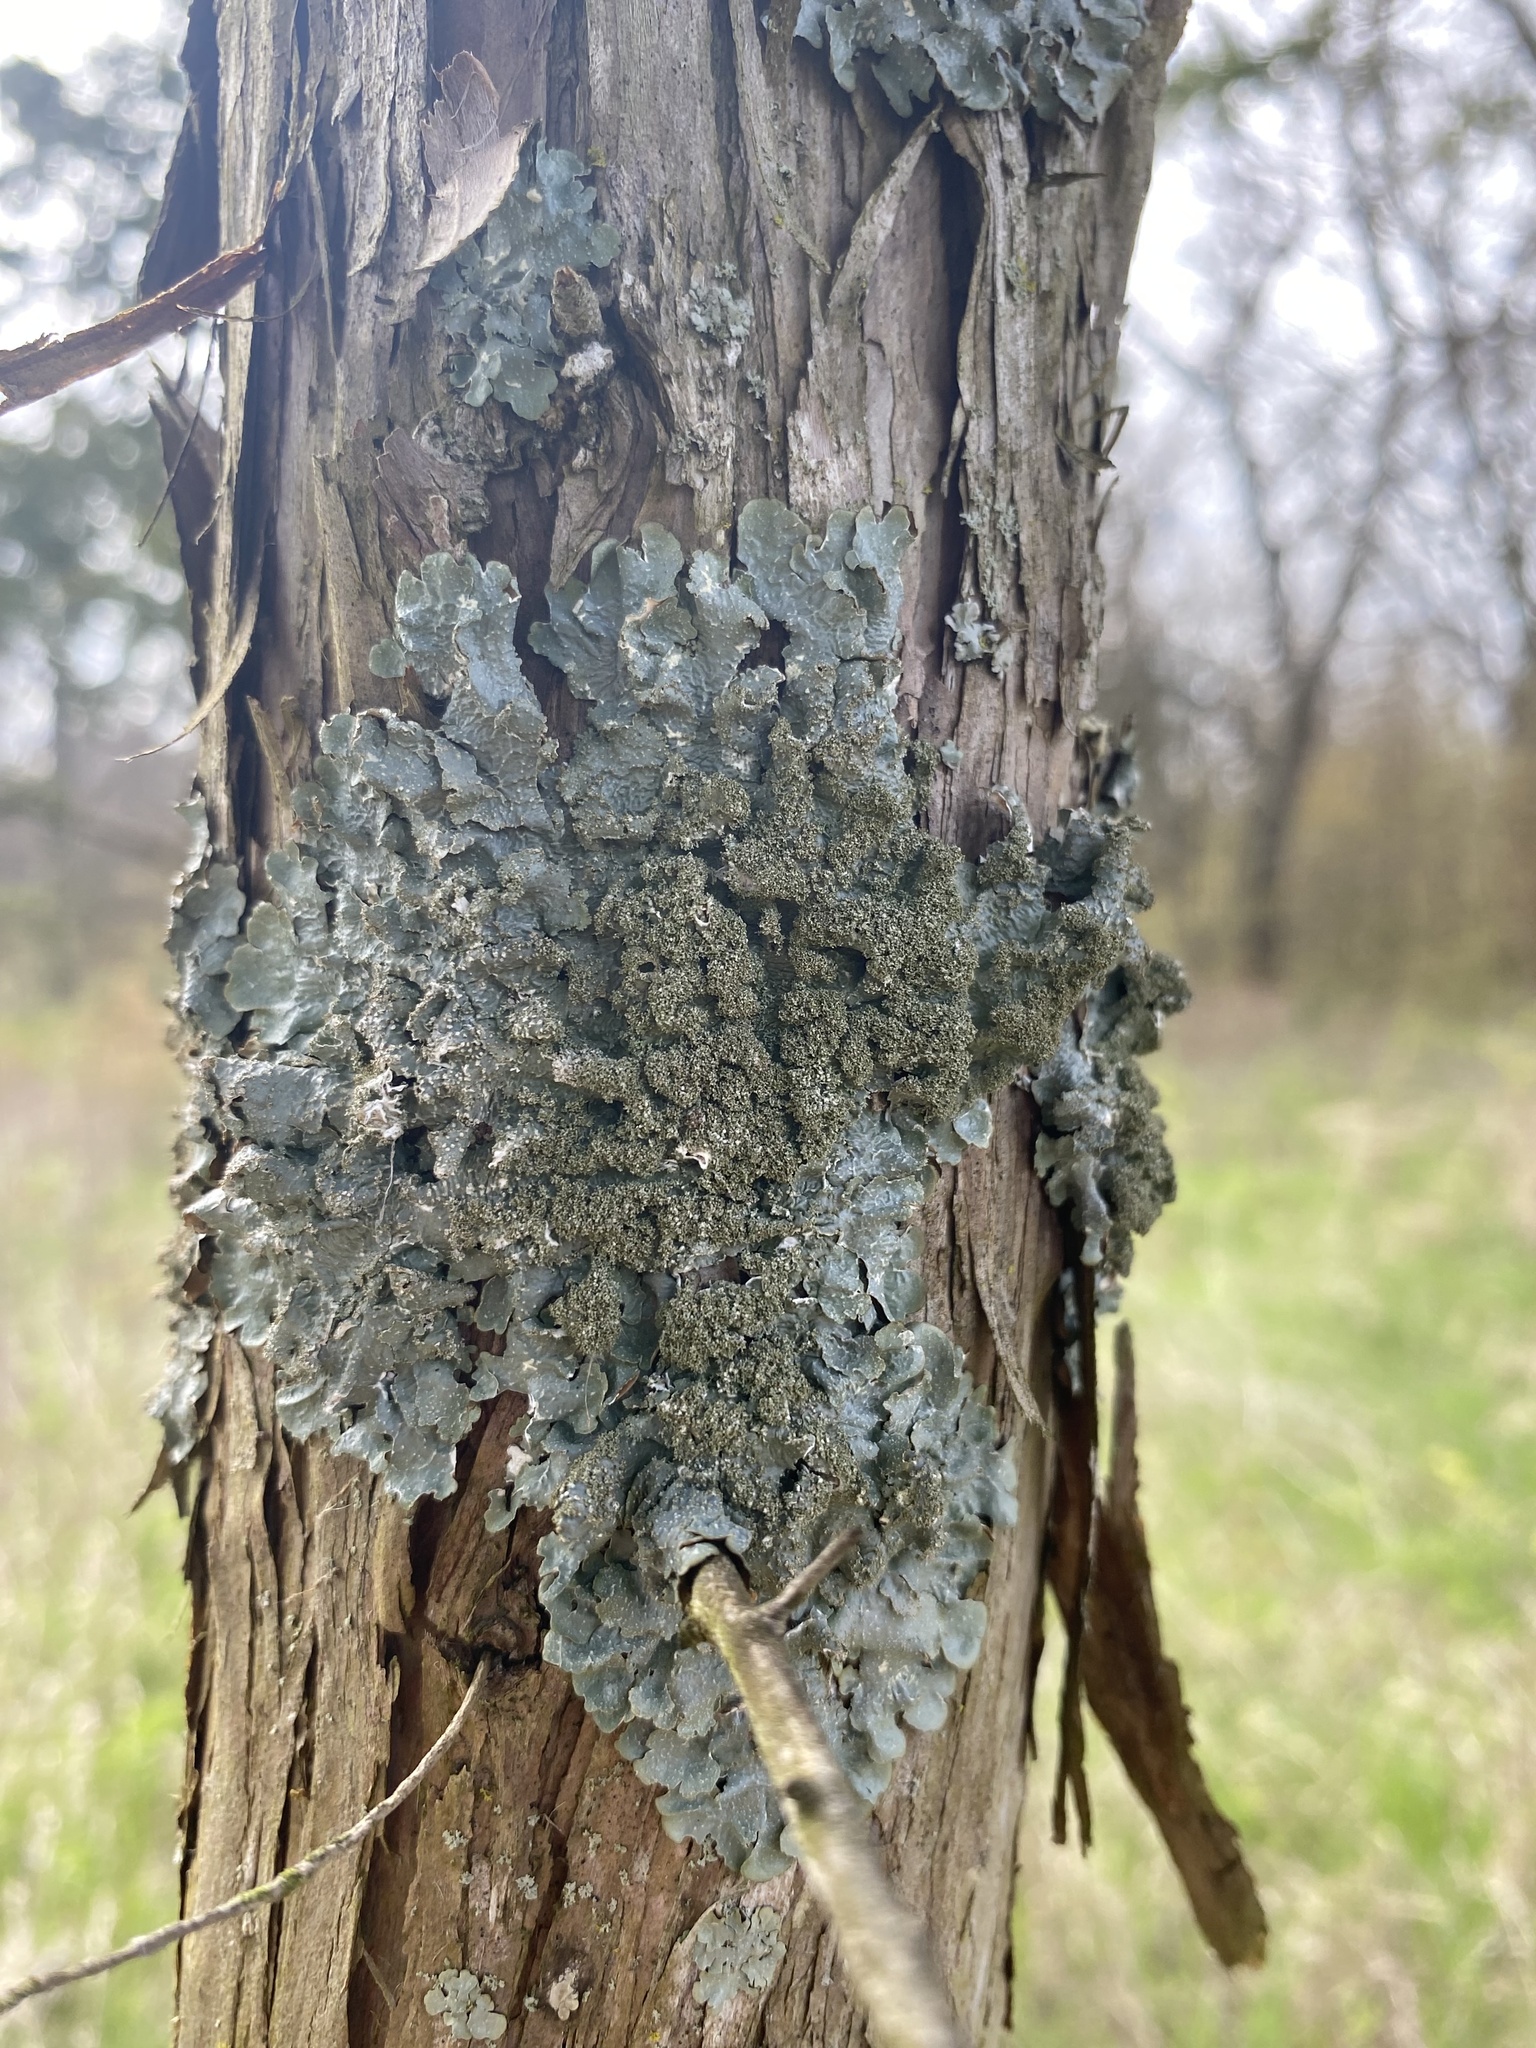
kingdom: Fungi
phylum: Ascomycota
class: Lecanoromycetes
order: Lecanorales
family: Parmeliaceae
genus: Punctelia
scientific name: Punctelia rudecta
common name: Rough speckled shield lichen
